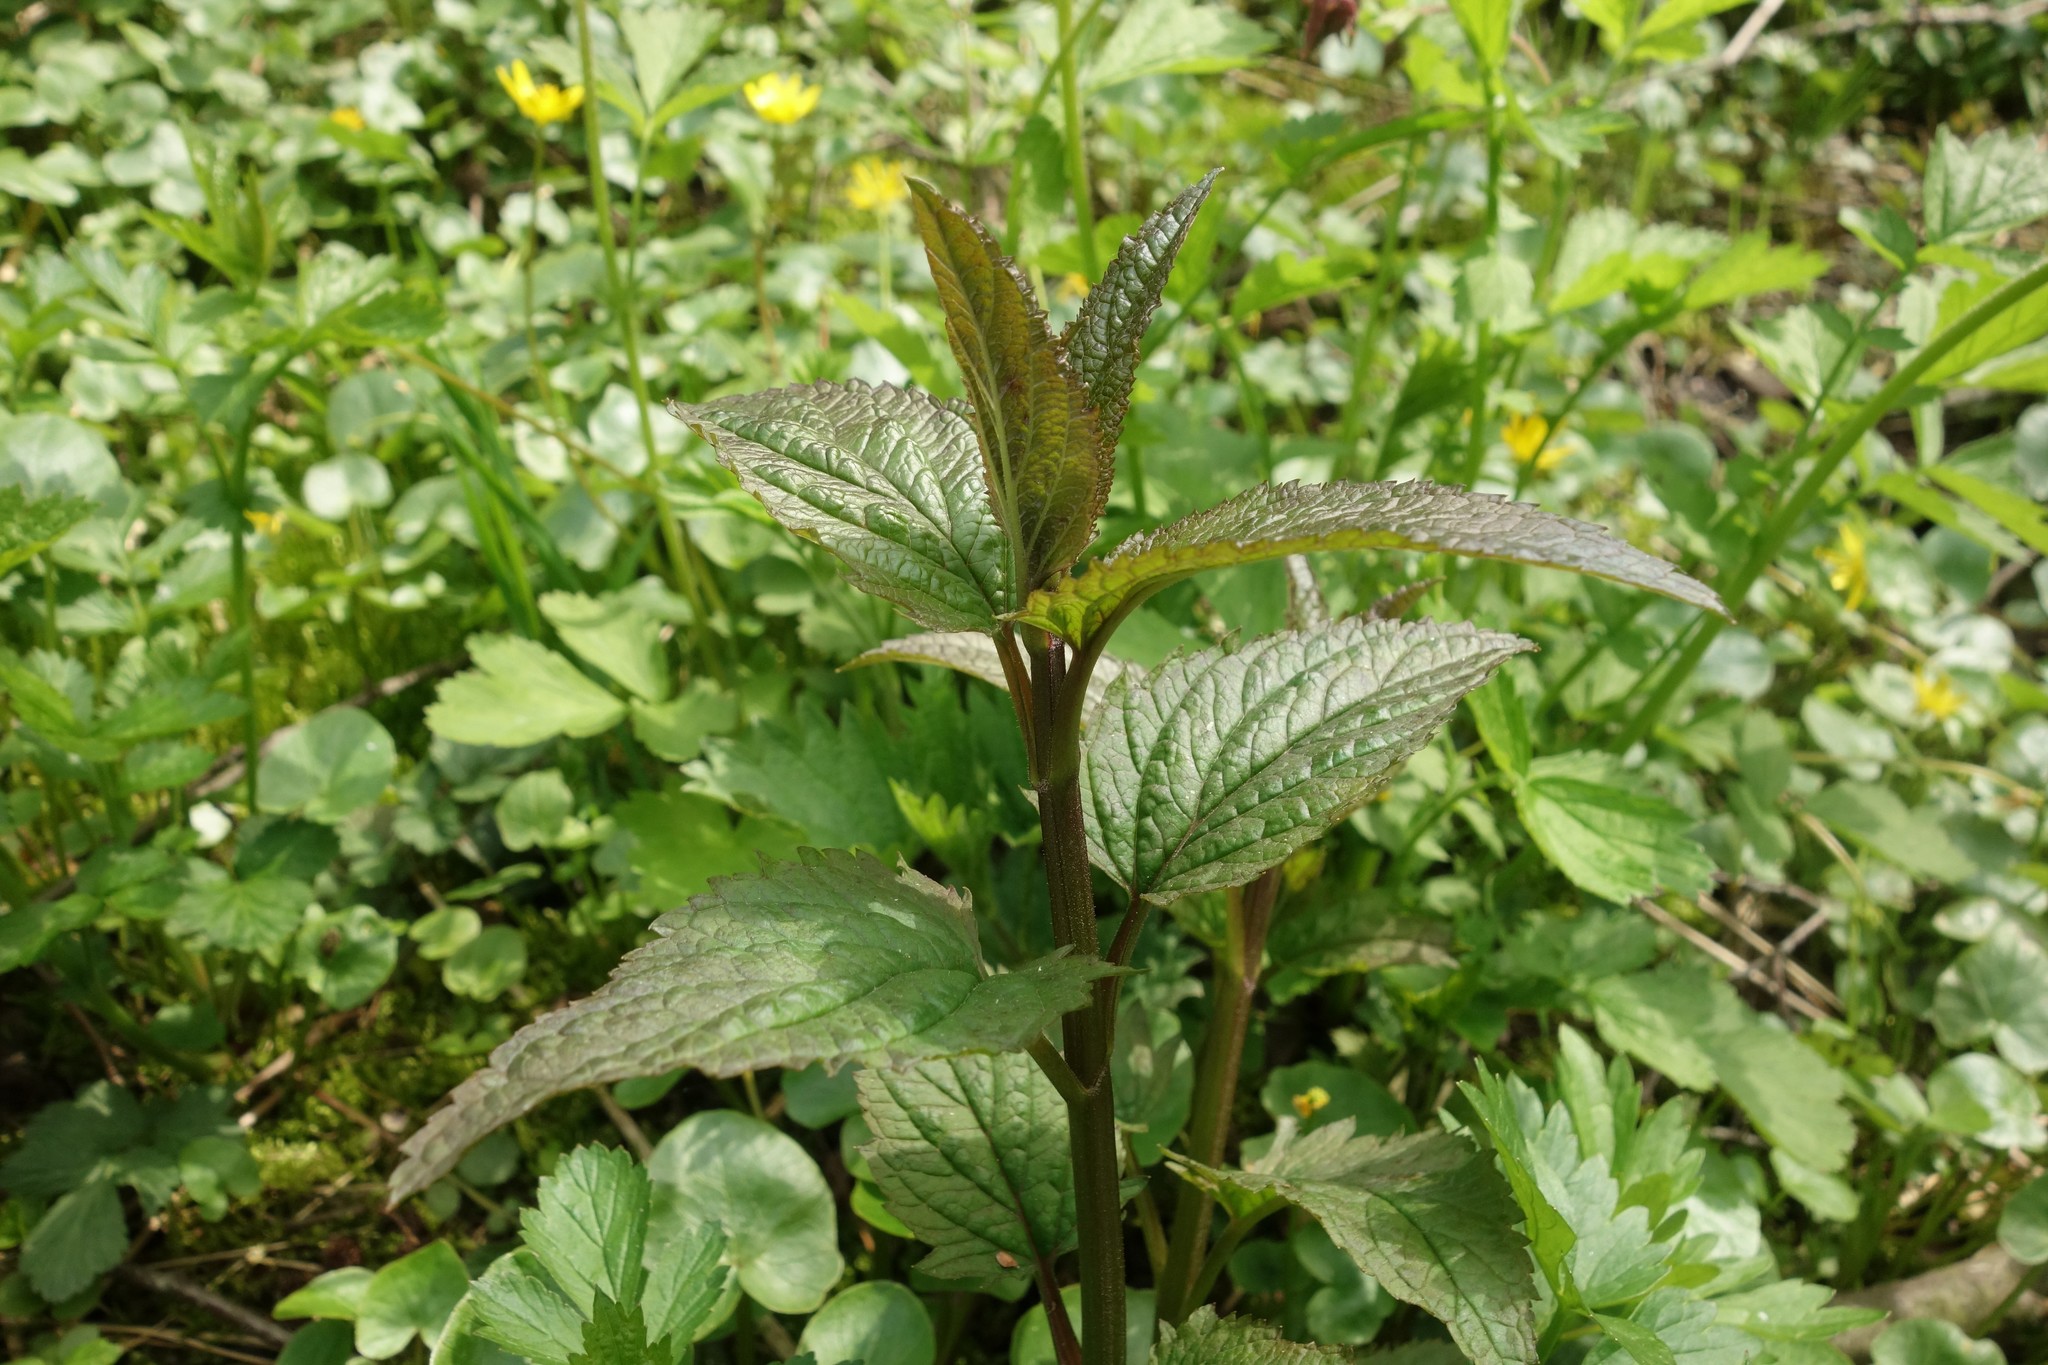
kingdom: Plantae
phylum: Tracheophyta
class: Magnoliopsida
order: Lamiales
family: Scrophulariaceae
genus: Scrophularia
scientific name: Scrophularia nodosa
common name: Common figwort
